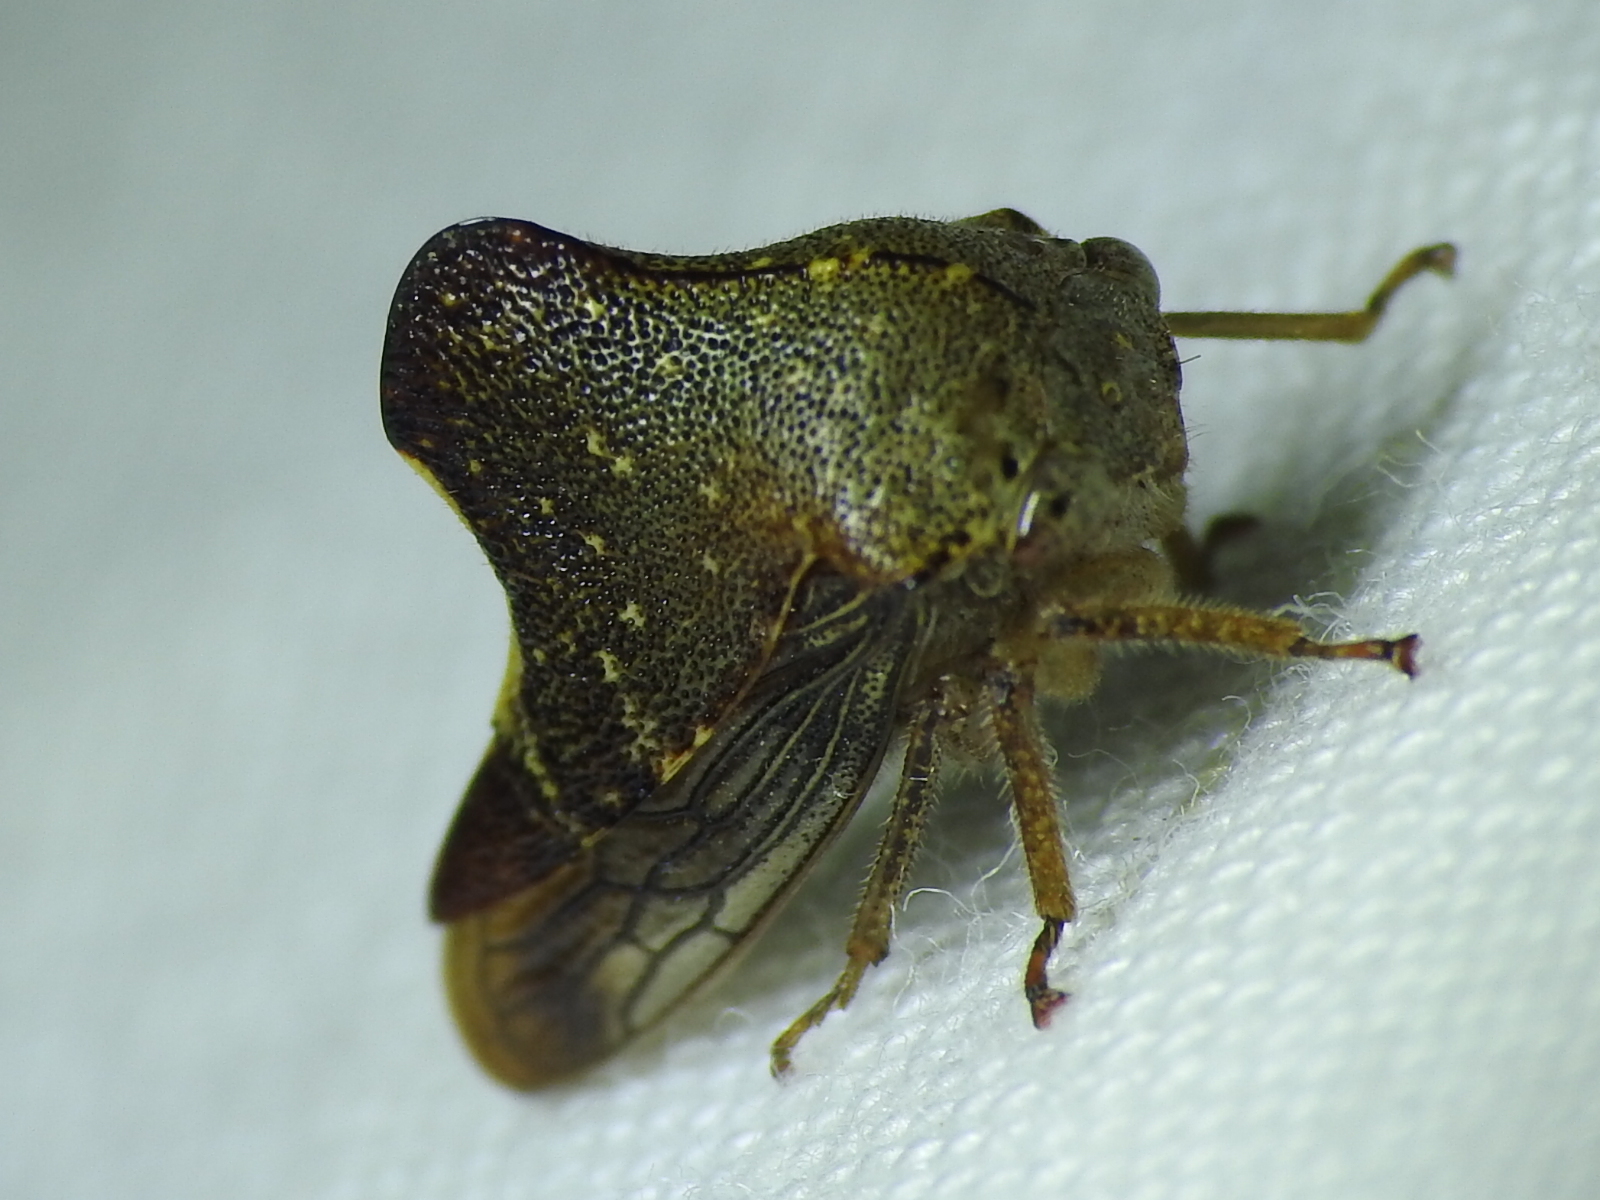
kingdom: Animalia
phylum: Arthropoda
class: Insecta
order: Hemiptera
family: Membracidae
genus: Telamona
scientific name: Telamona monticola
